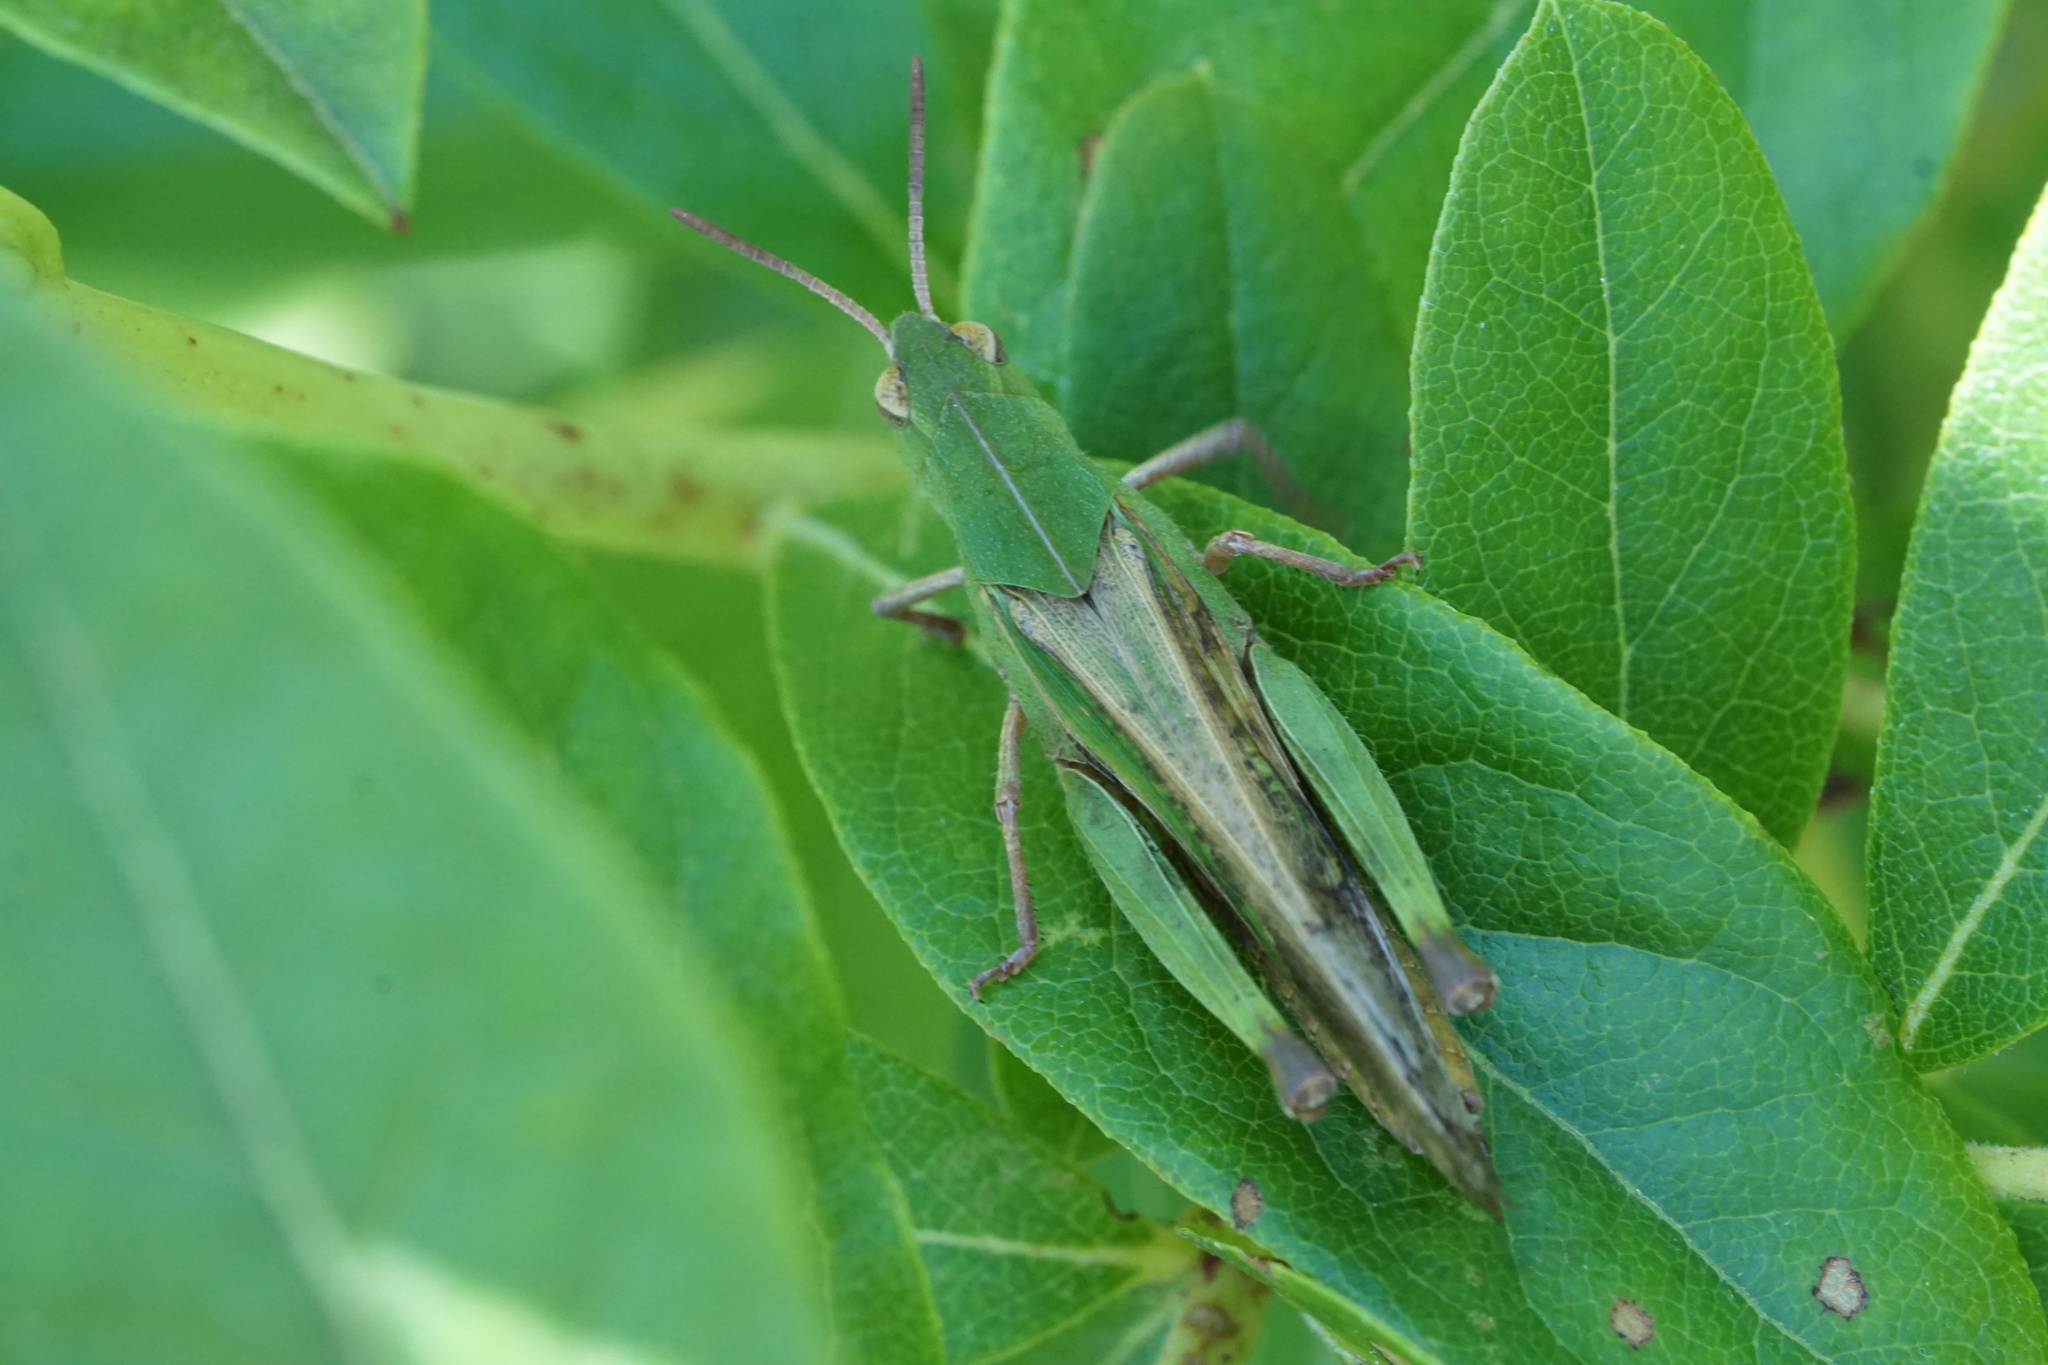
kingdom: Animalia
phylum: Arthropoda
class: Insecta
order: Lepidoptera
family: Nymphalidae
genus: Cercyonis
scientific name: Cercyonis pegala
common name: Common wood-nymph
